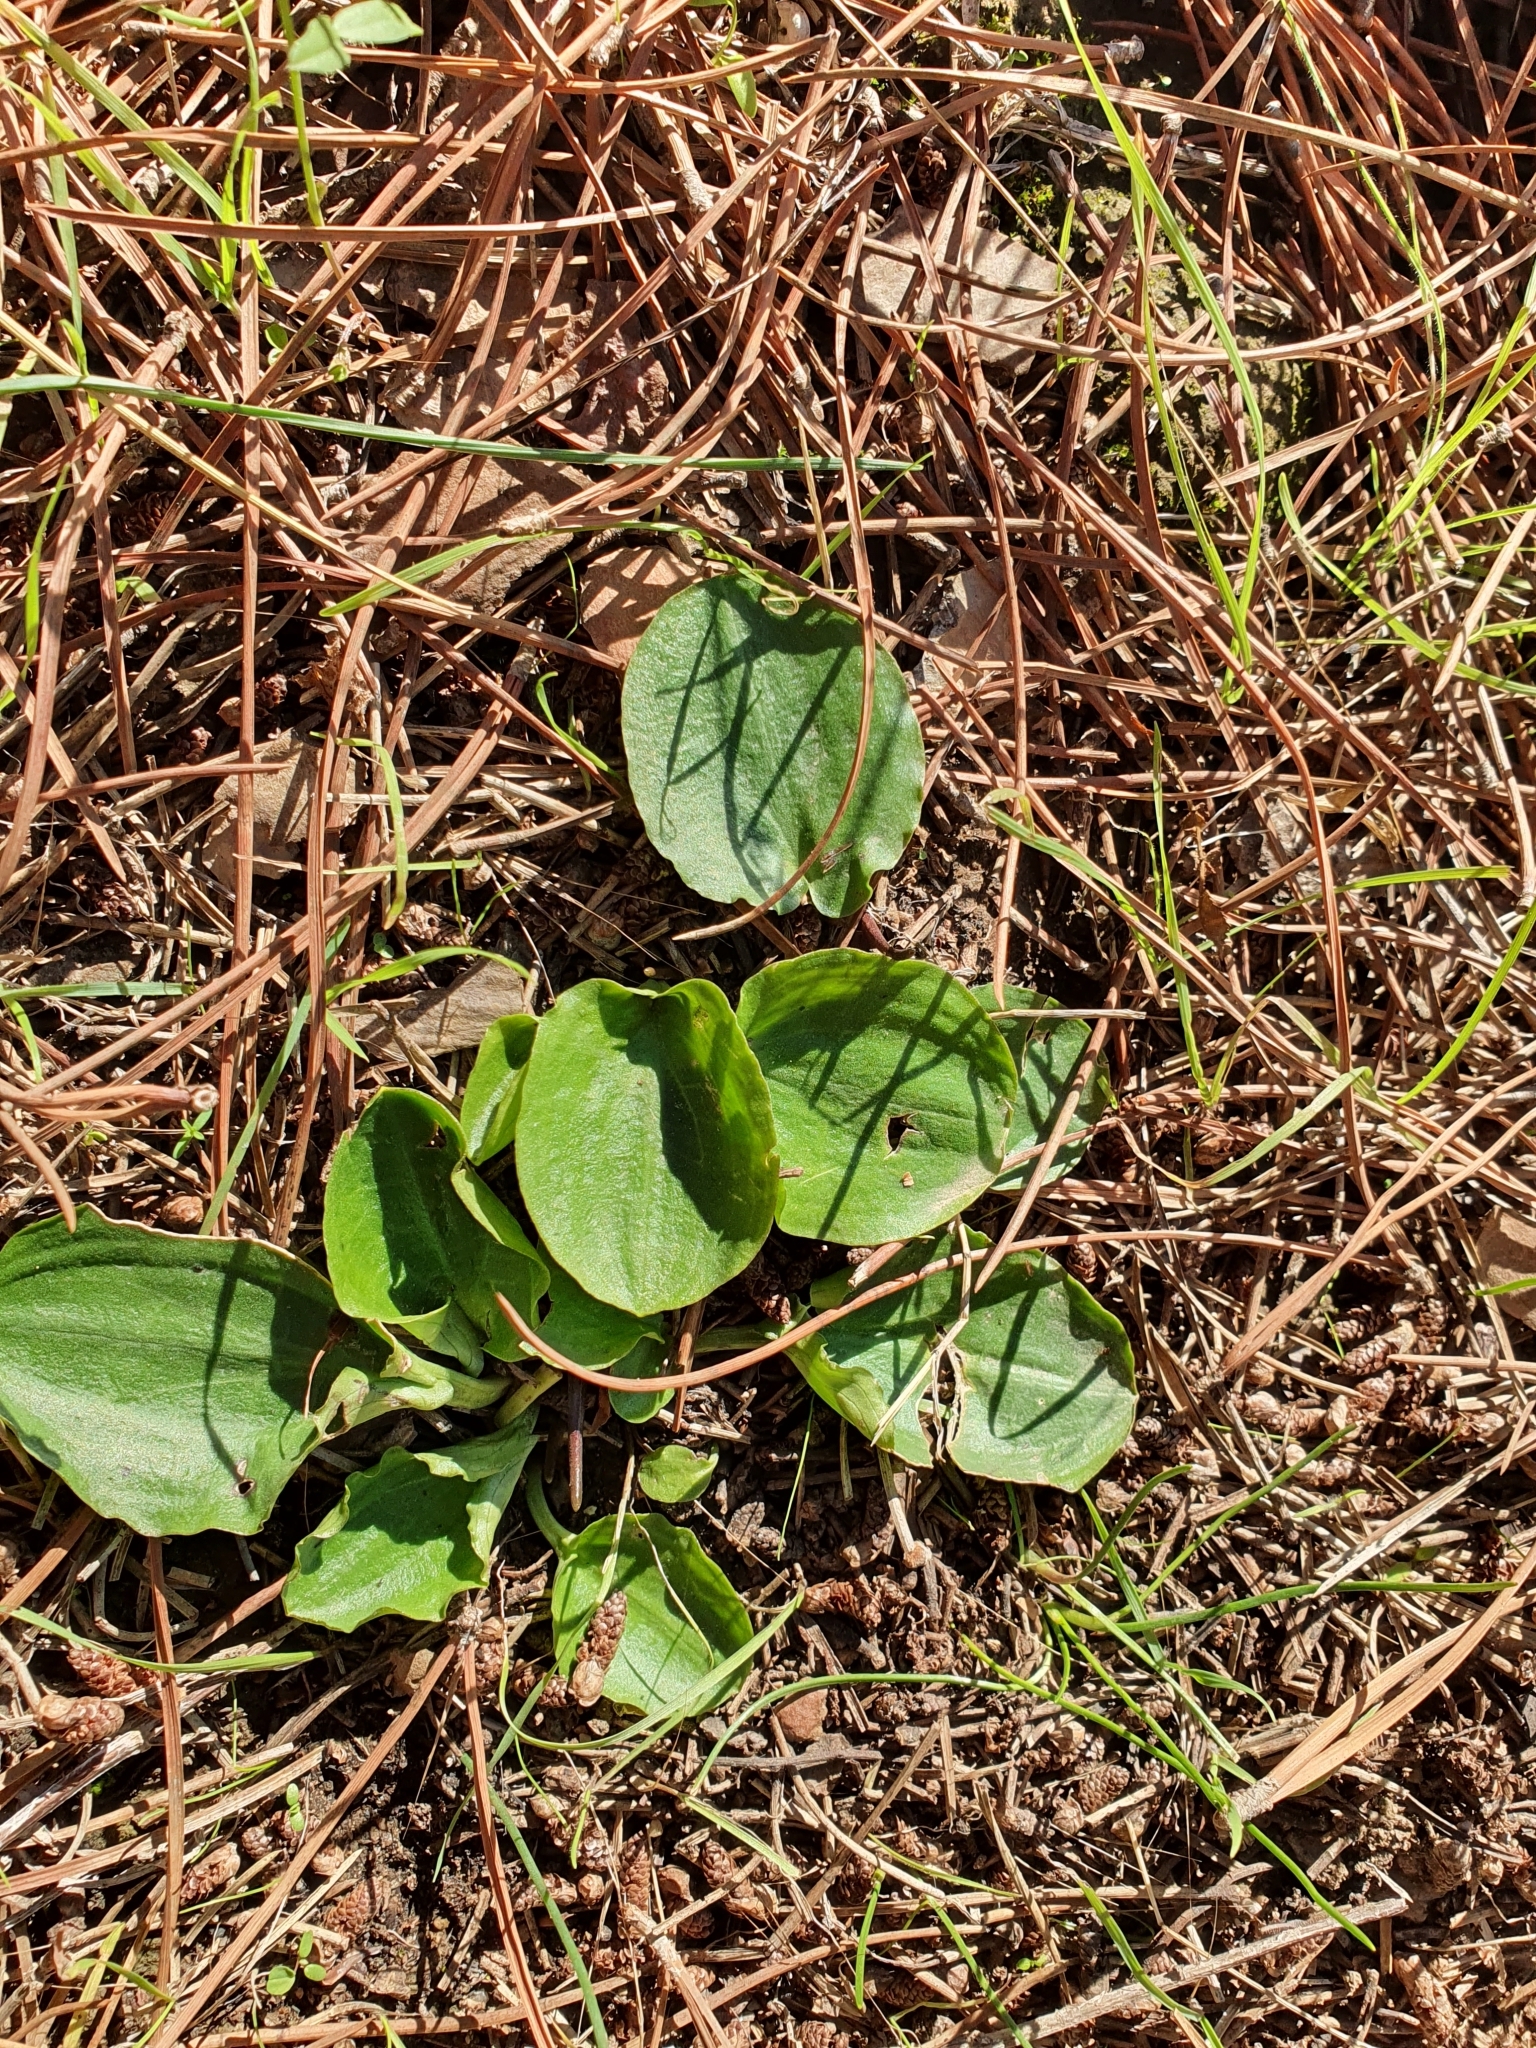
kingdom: Plantae
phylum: Tracheophyta
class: Liliopsida
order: Alismatales
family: Araceae
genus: Ambrosina
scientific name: Ambrosina bassii
